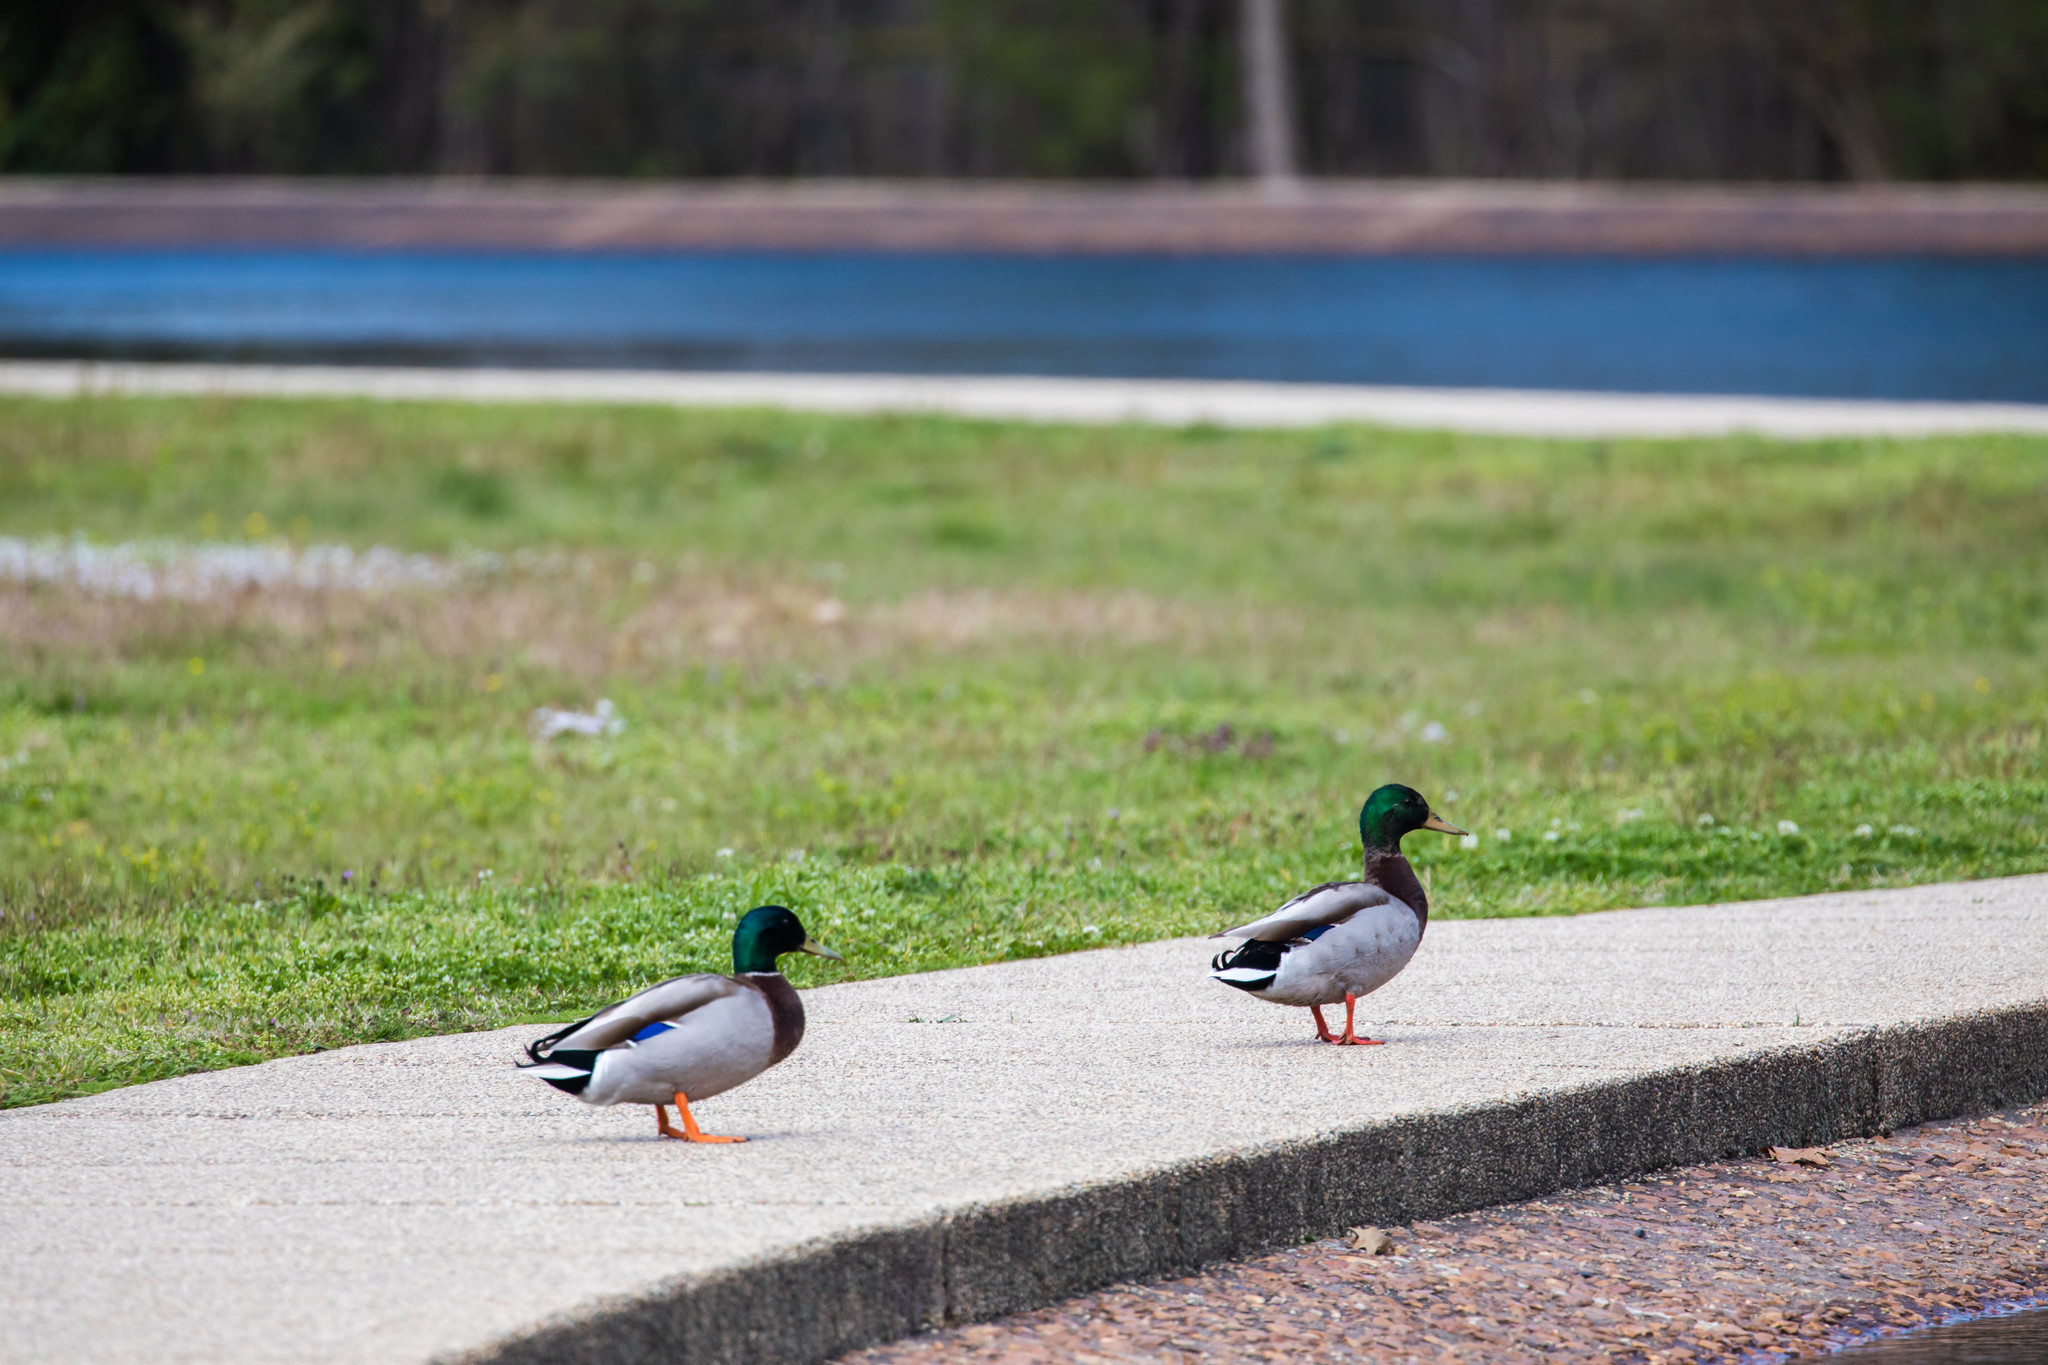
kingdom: Animalia
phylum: Chordata
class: Aves
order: Anseriformes
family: Anatidae
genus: Anas
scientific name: Anas platyrhynchos
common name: Mallard
